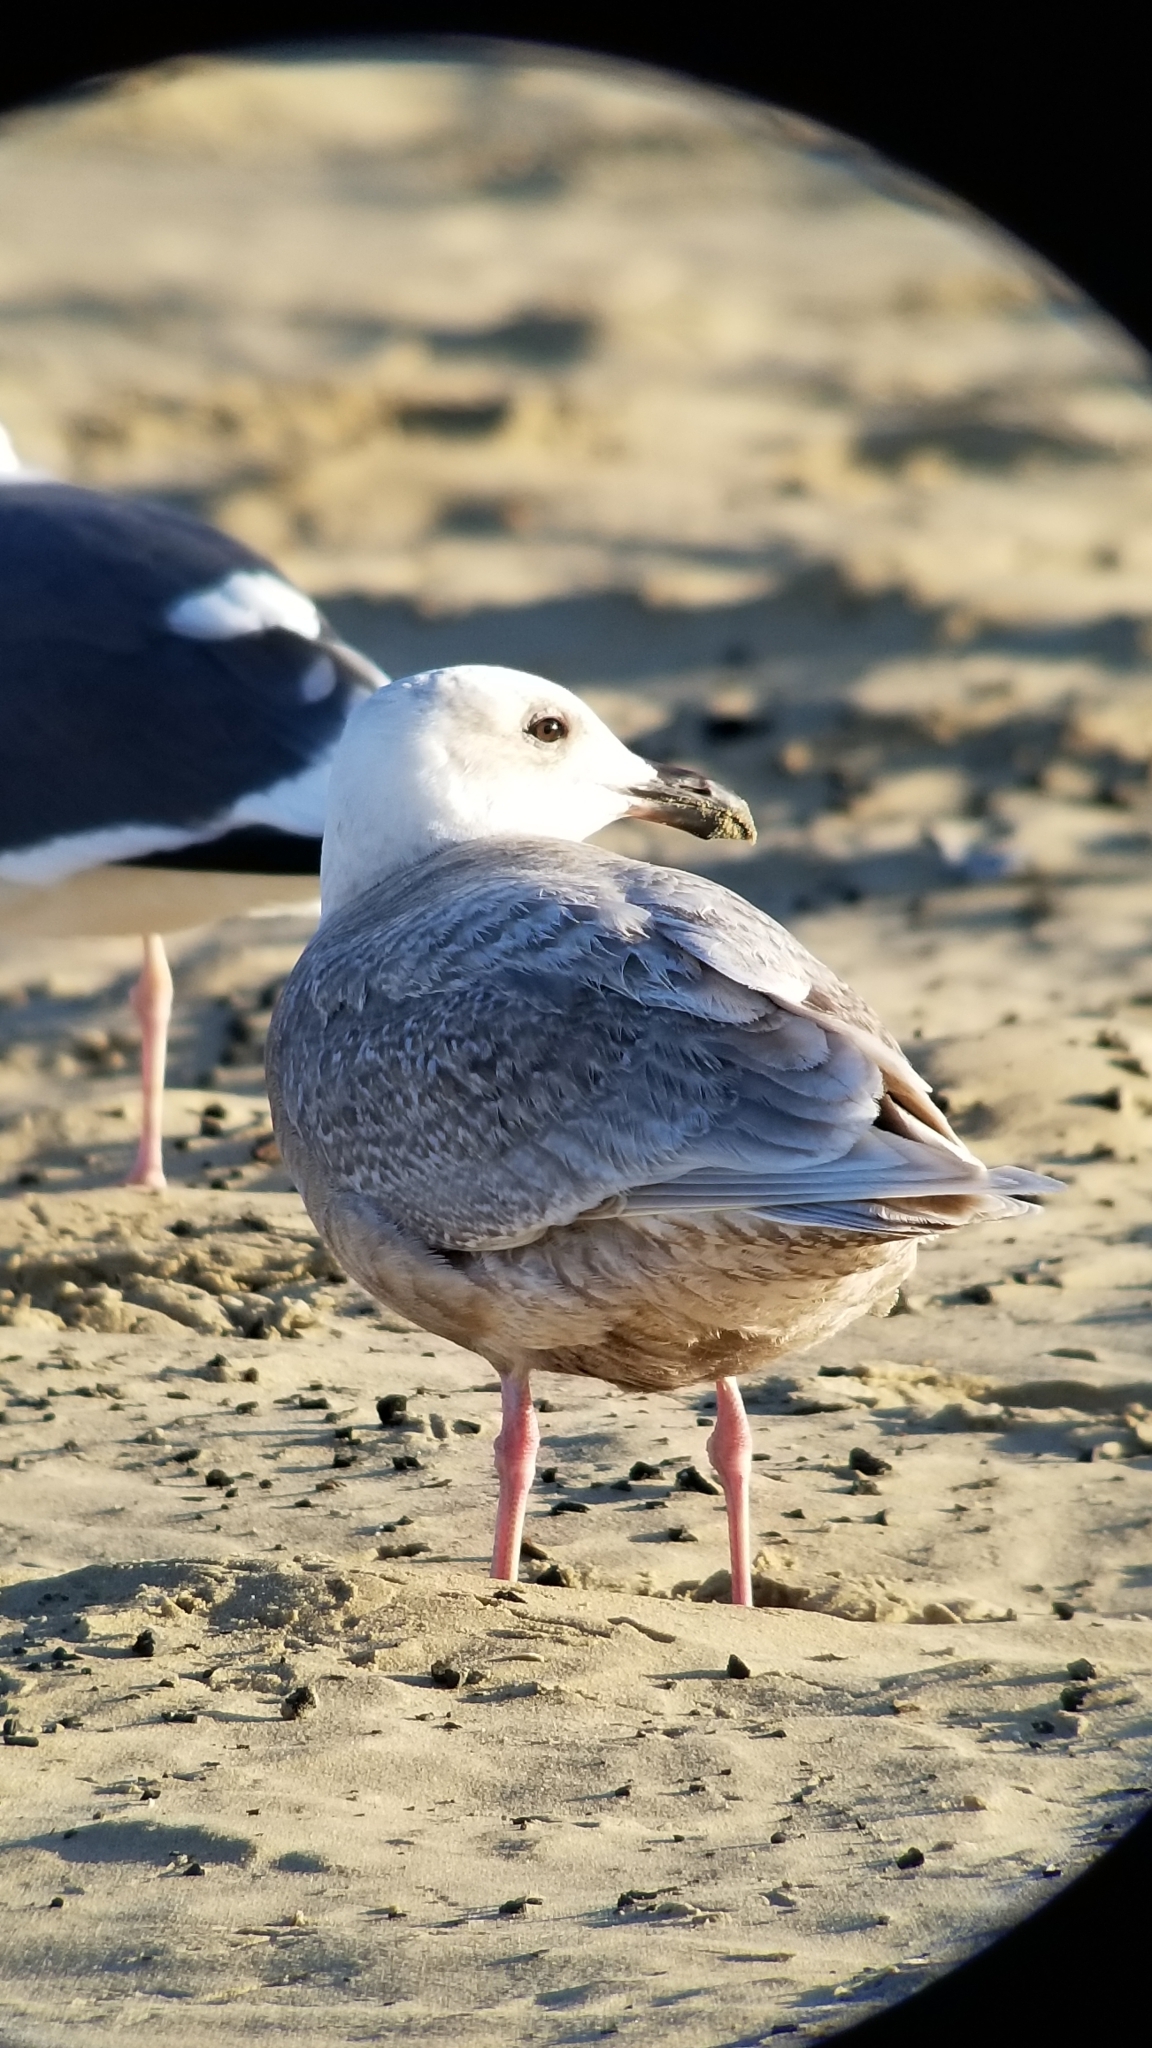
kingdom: Animalia
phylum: Chordata
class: Aves
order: Charadriiformes
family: Laridae
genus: Larus
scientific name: Larus glaucescens
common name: Glaucous-winged gull
